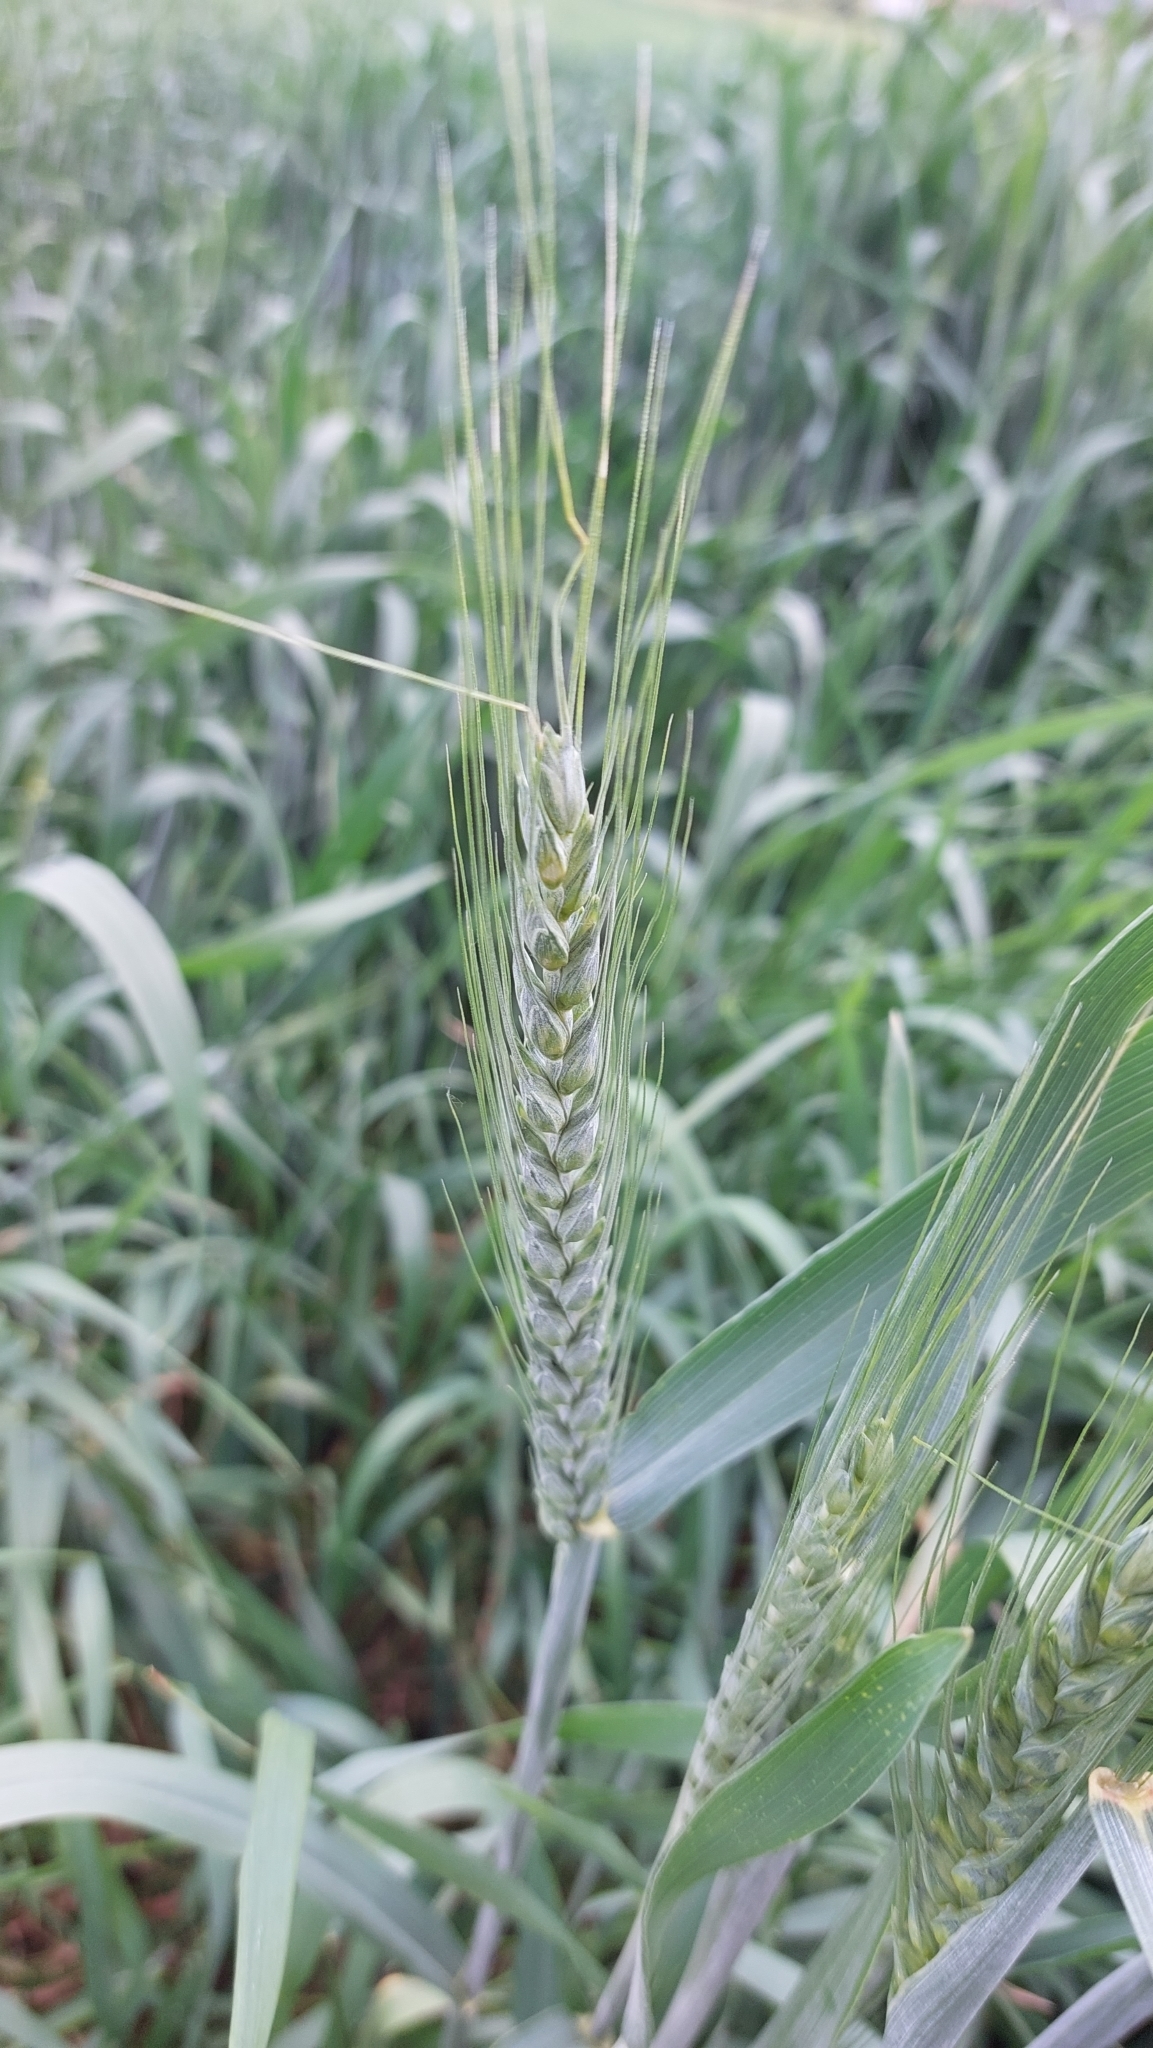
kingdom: Plantae
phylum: Tracheophyta
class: Liliopsida
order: Poales
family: Poaceae
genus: Triticum
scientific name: Triticum aestivum
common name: Common wheat
